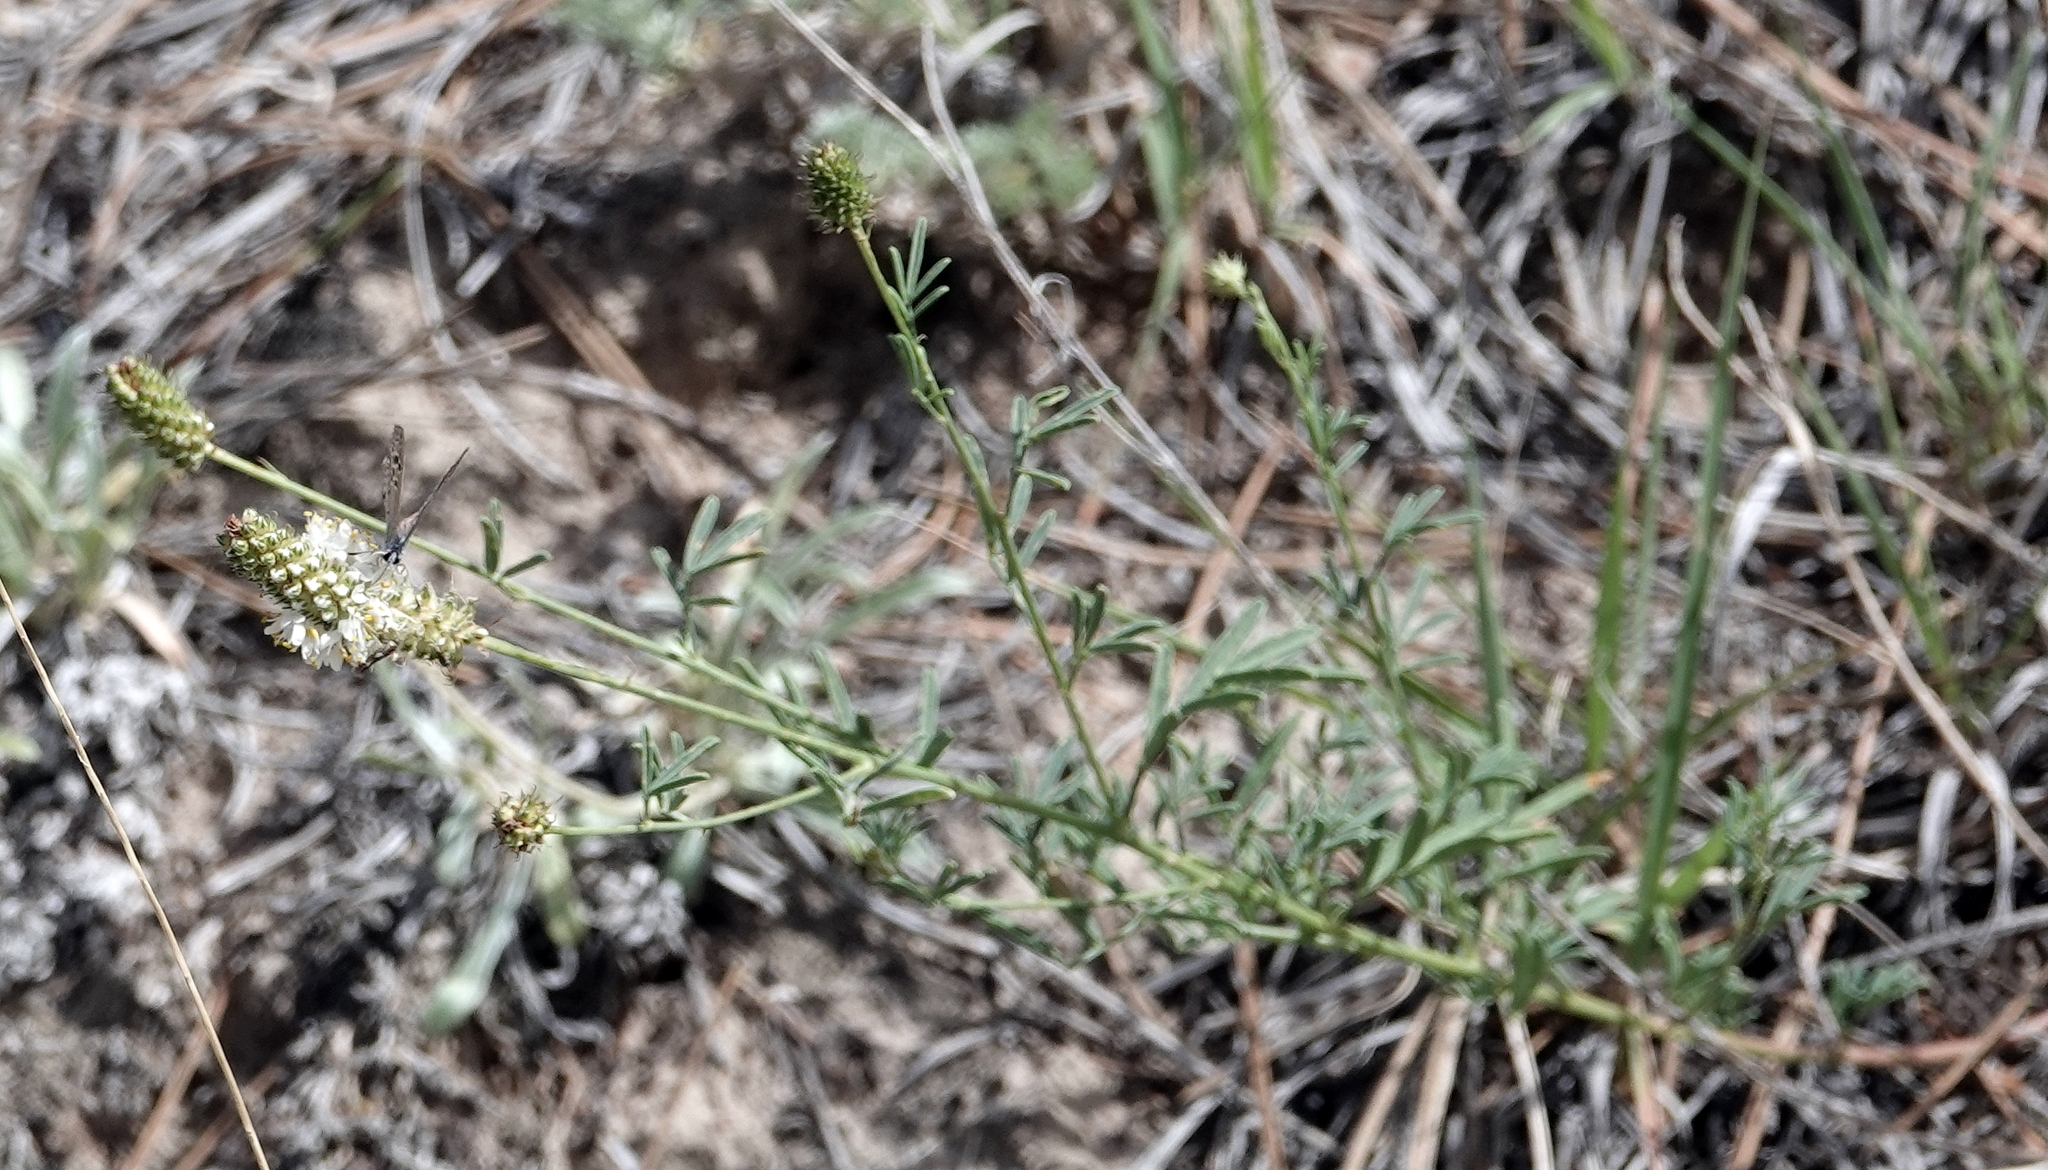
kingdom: Plantae
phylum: Tracheophyta
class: Magnoliopsida
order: Fabales
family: Fabaceae
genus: Dalea
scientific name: Dalea candida
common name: White prairie-clover
